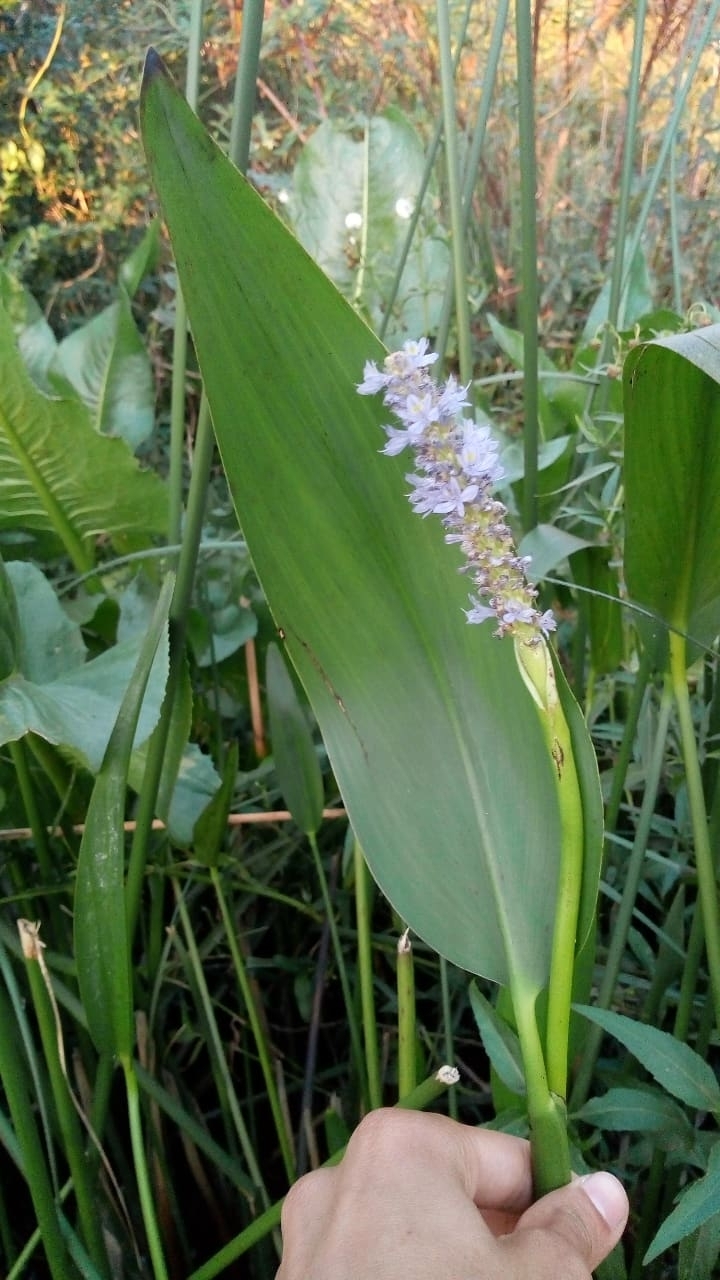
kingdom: Plantae
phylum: Tracheophyta
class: Liliopsida
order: Commelinales
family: Pontederiaceae
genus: Pontederia
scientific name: Pontederia cordata
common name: Pickerelweed
